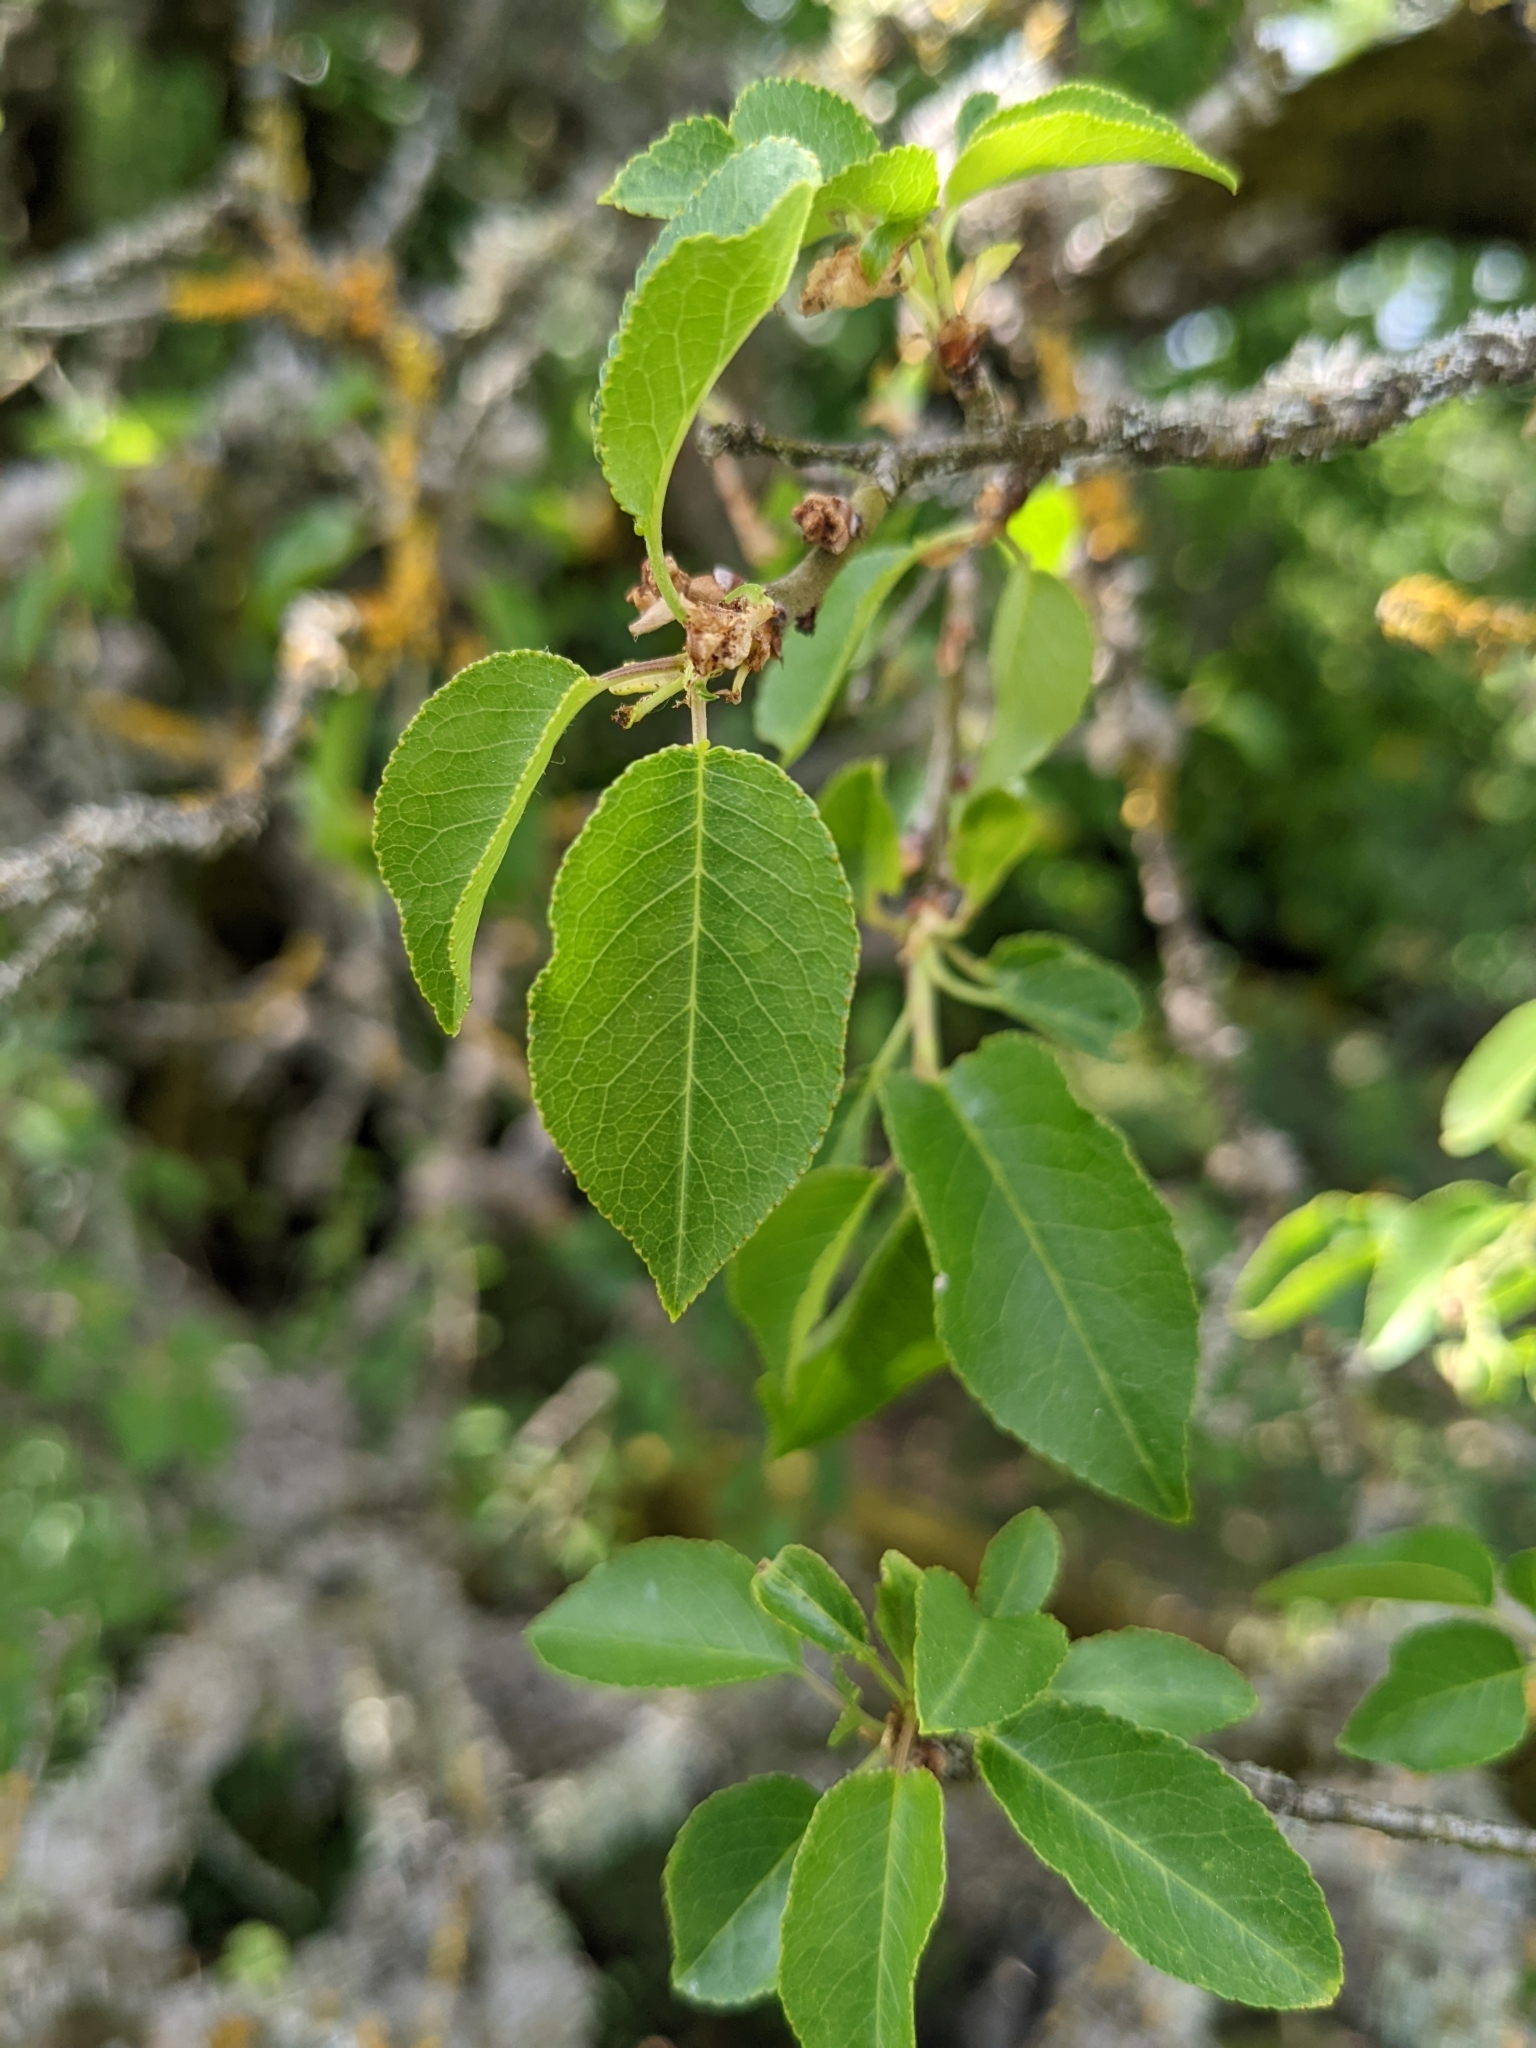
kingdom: Plantae
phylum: Tracheophyta
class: Magnoliopsida
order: Rosales
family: Rosaceae
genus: Prunus
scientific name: Prunus mahaleb
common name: Mahaleb cherry
